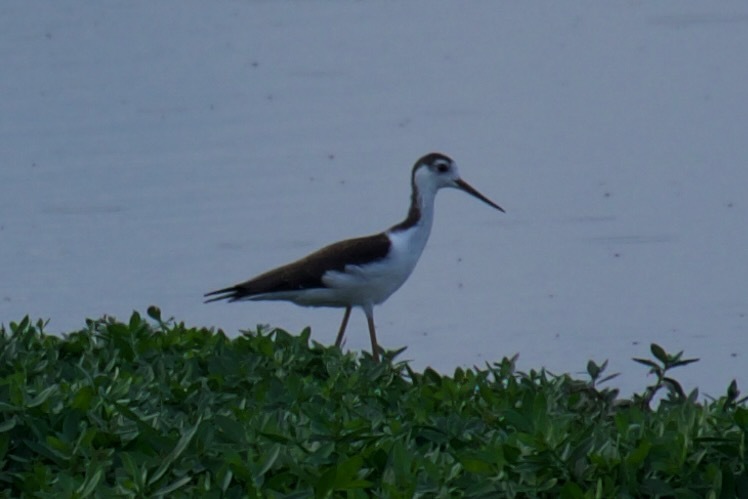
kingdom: Animalia
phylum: Chordata
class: Aves
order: Charadriiformes
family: Recurvirostridae
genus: Himantopus
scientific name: Himantopus mexicanus
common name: Black-necked stilt
